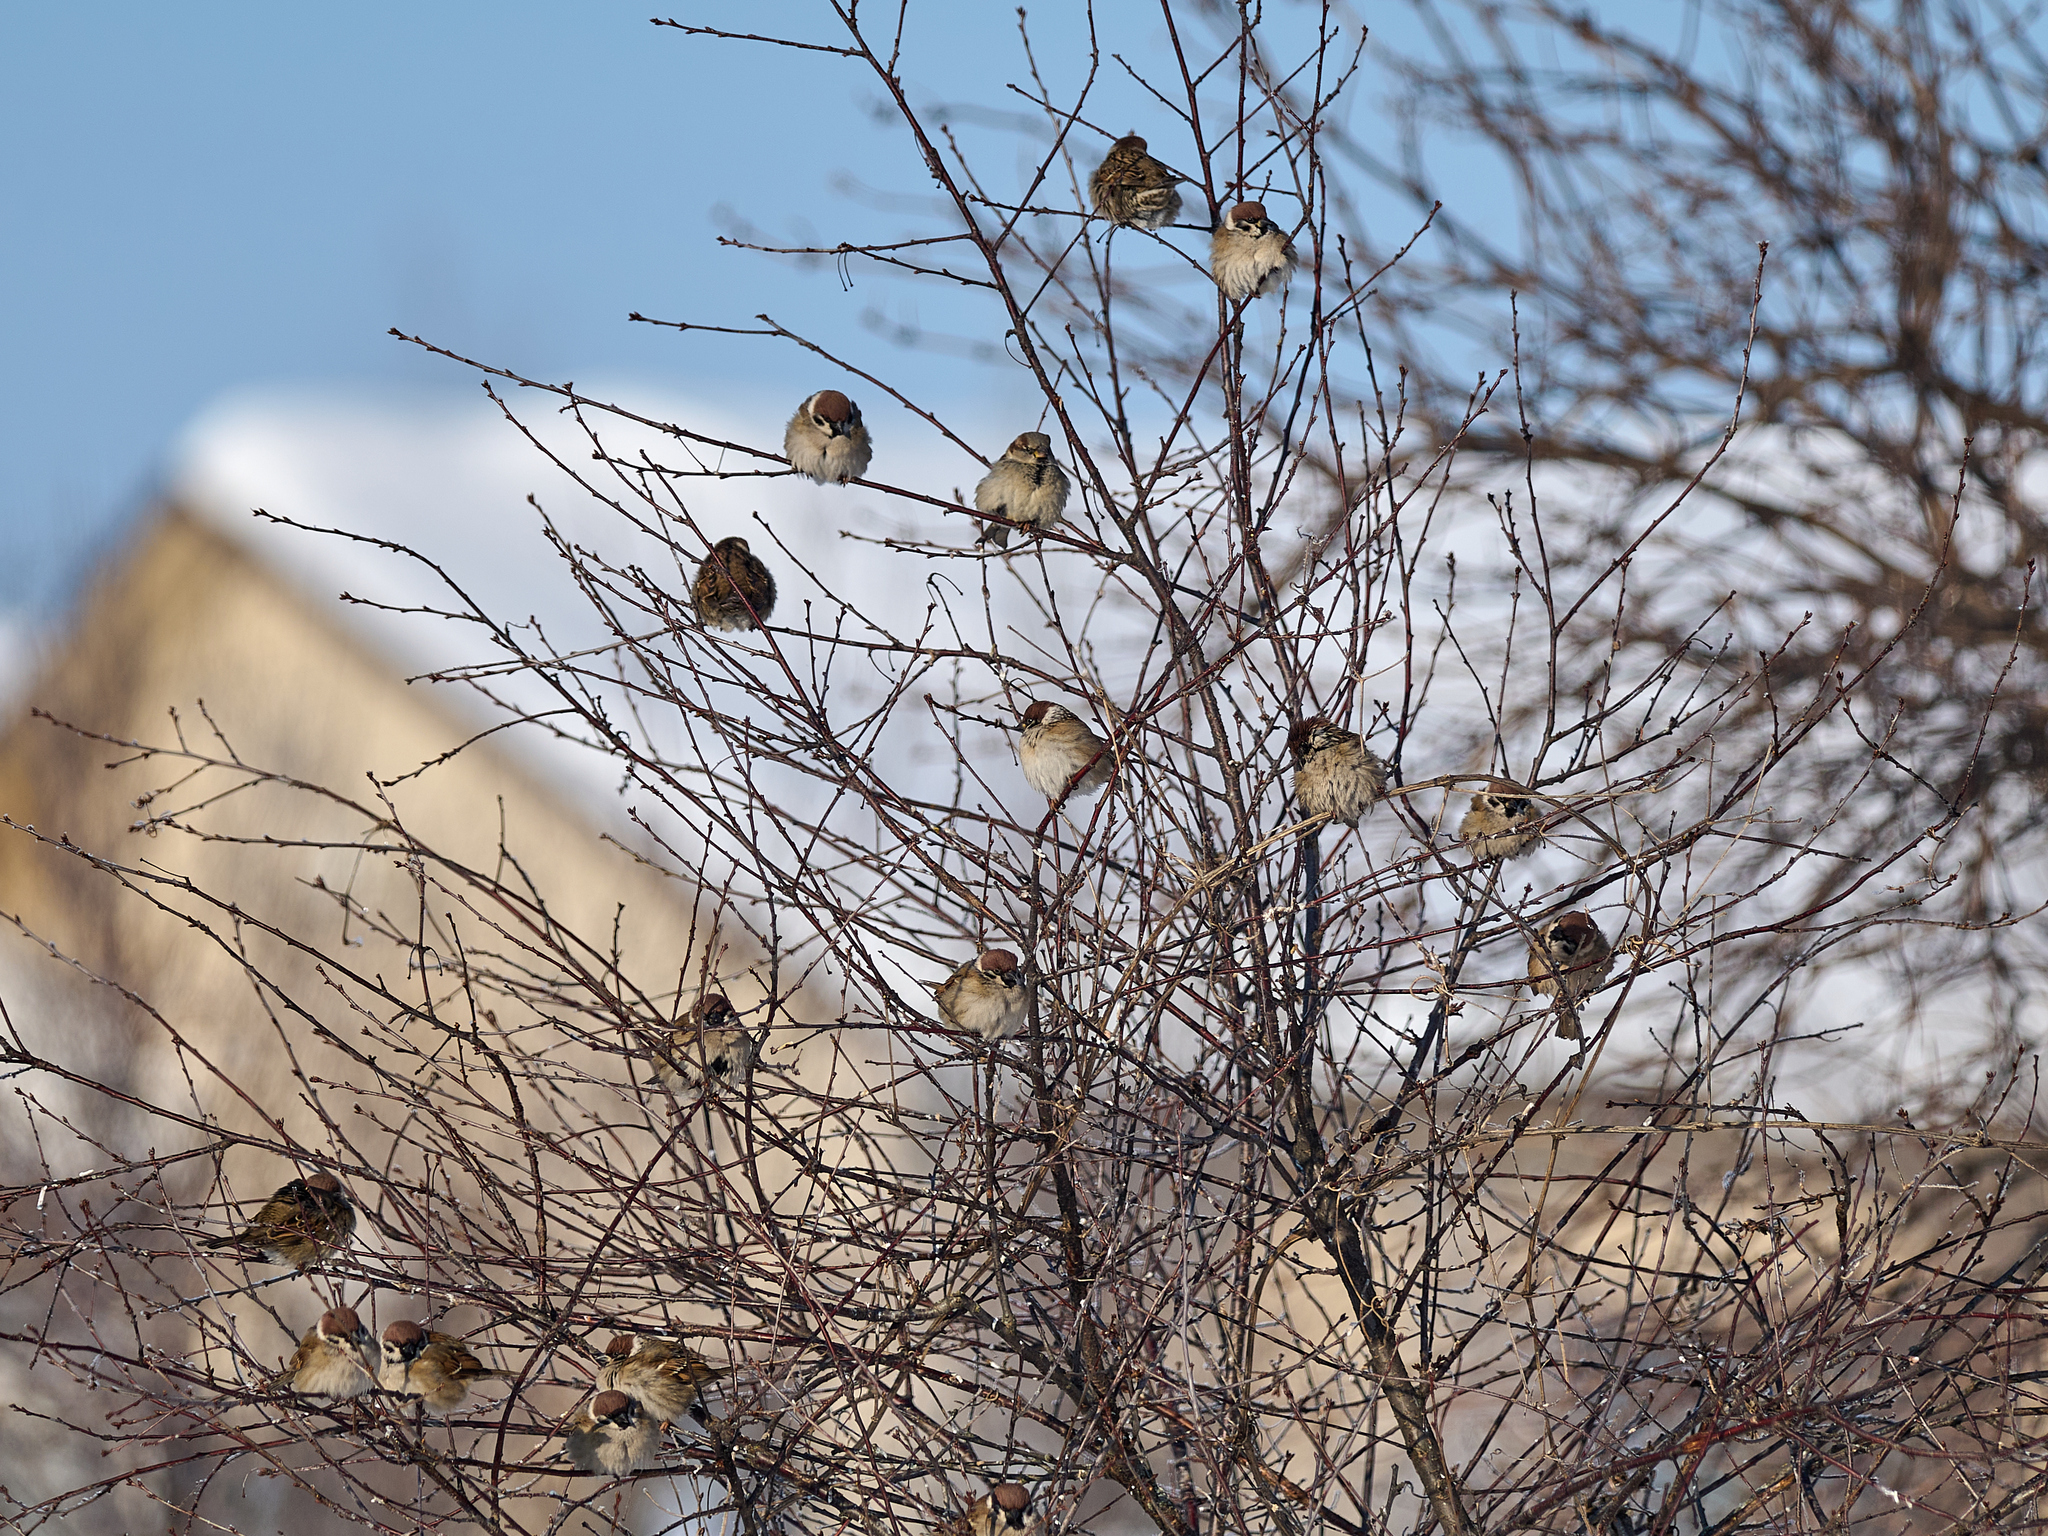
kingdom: Animalia
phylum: Chordata
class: Aves
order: Passeriformes
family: Passeridae
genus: Passer
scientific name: Passer montanus
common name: Eurasian tree sparrow
